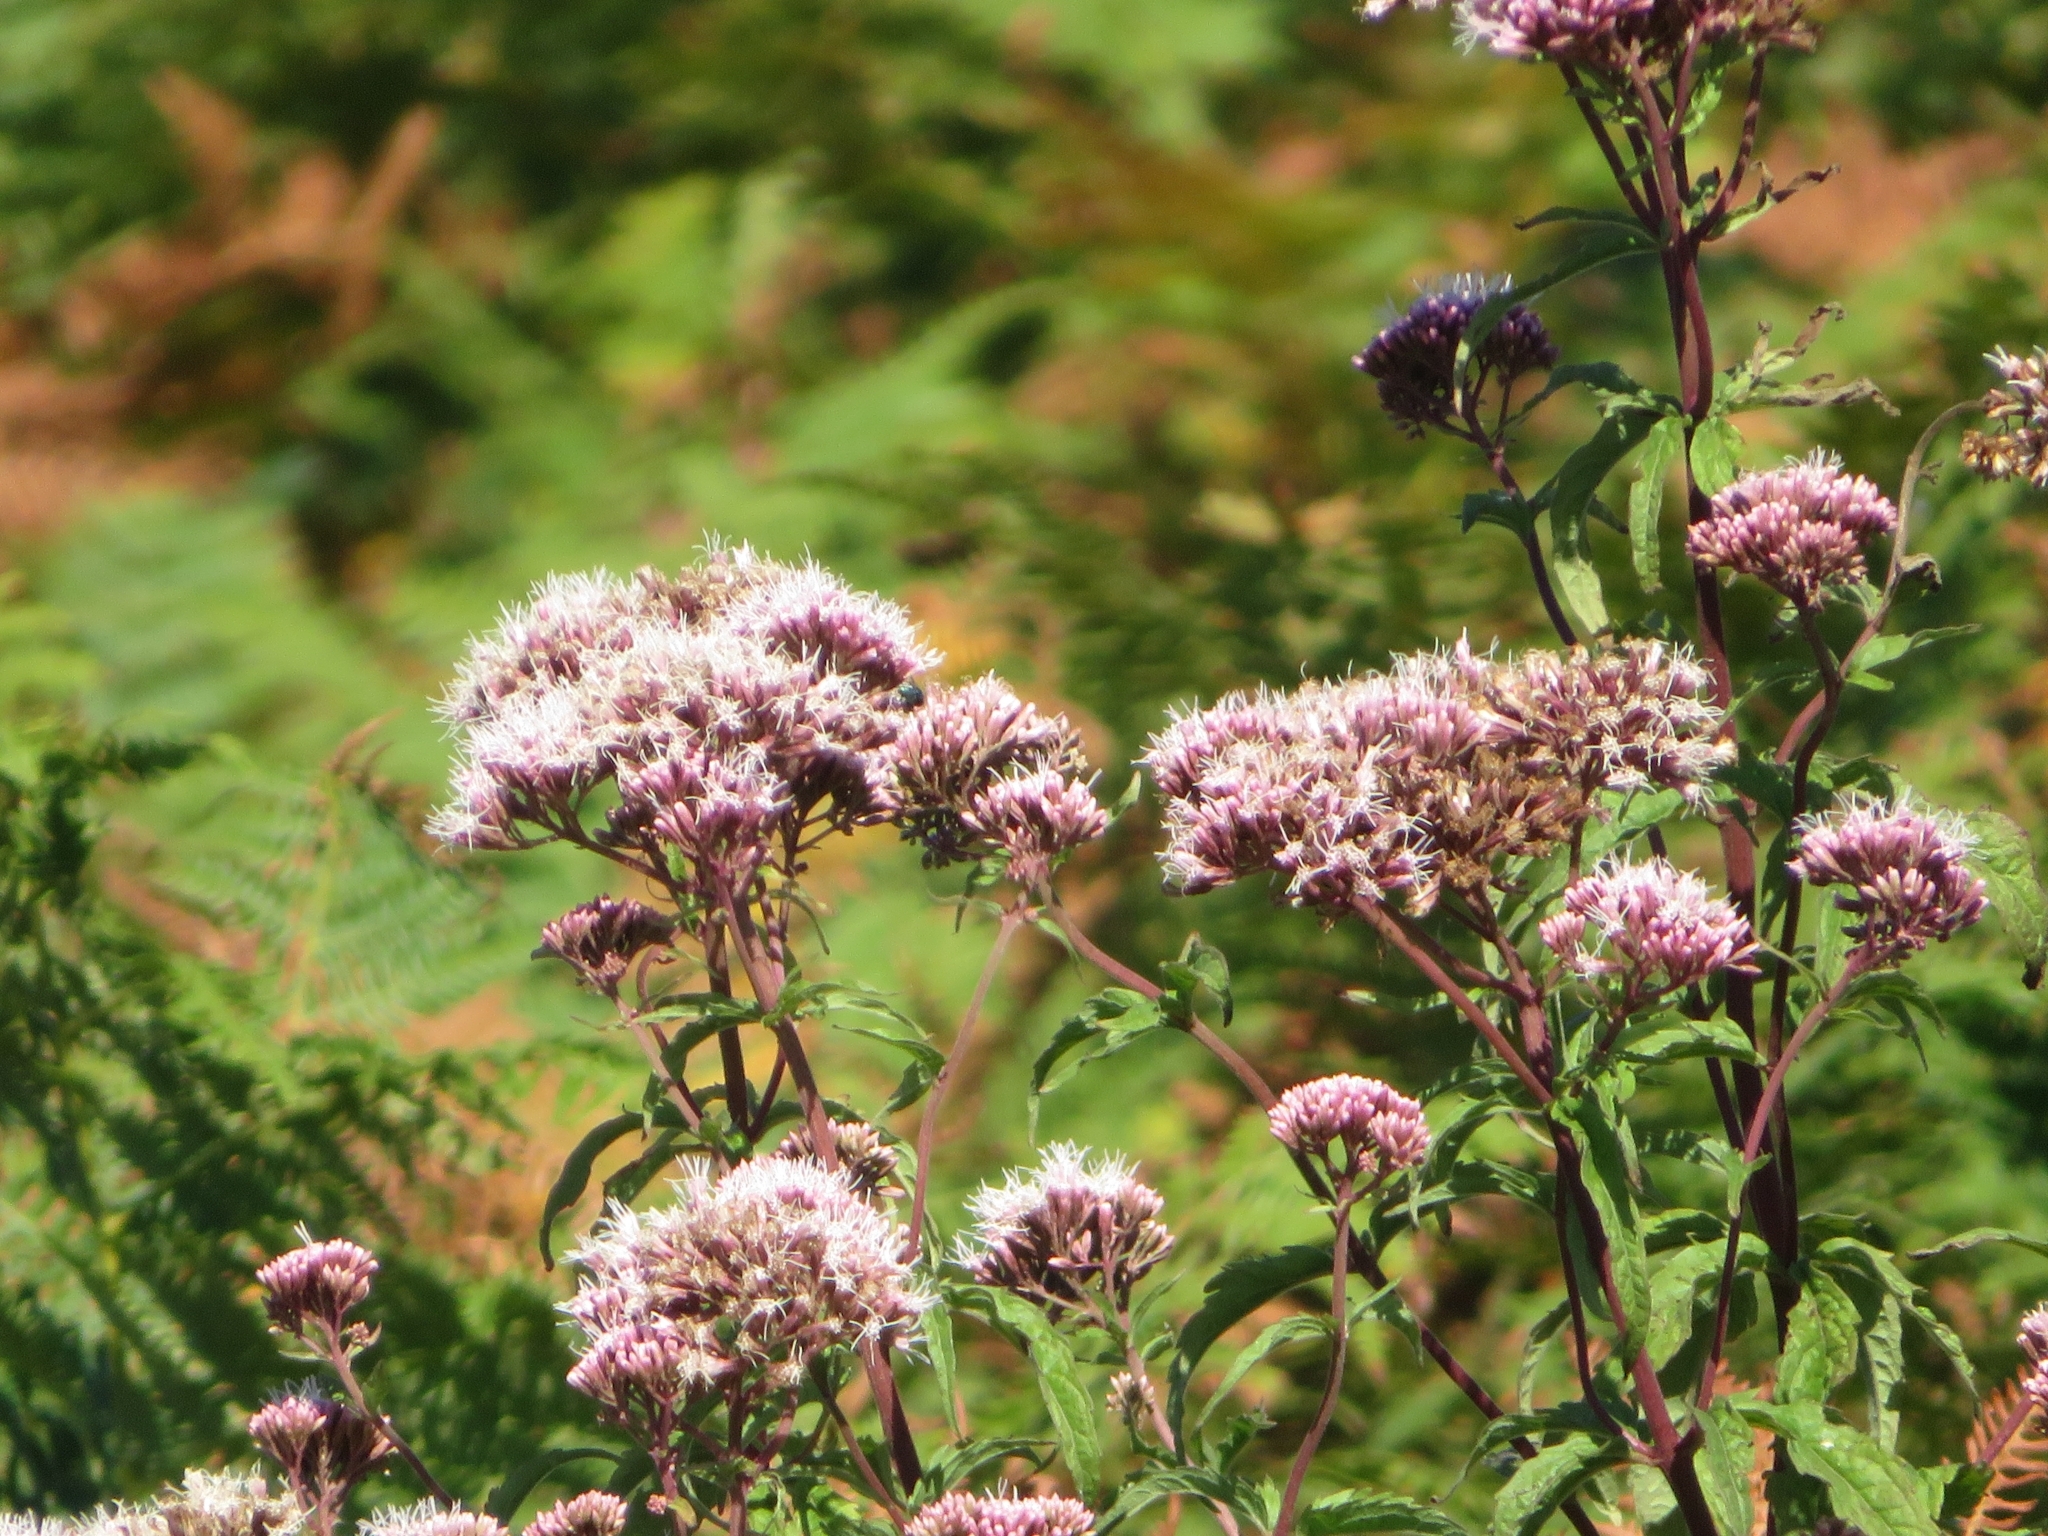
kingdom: Plantae
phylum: Tracheophyta
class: Magnoliopsida
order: Asterales
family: Asteraceae
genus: Eupatorium
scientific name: Eupatorium cannabinum
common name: Hemp-agrimony
